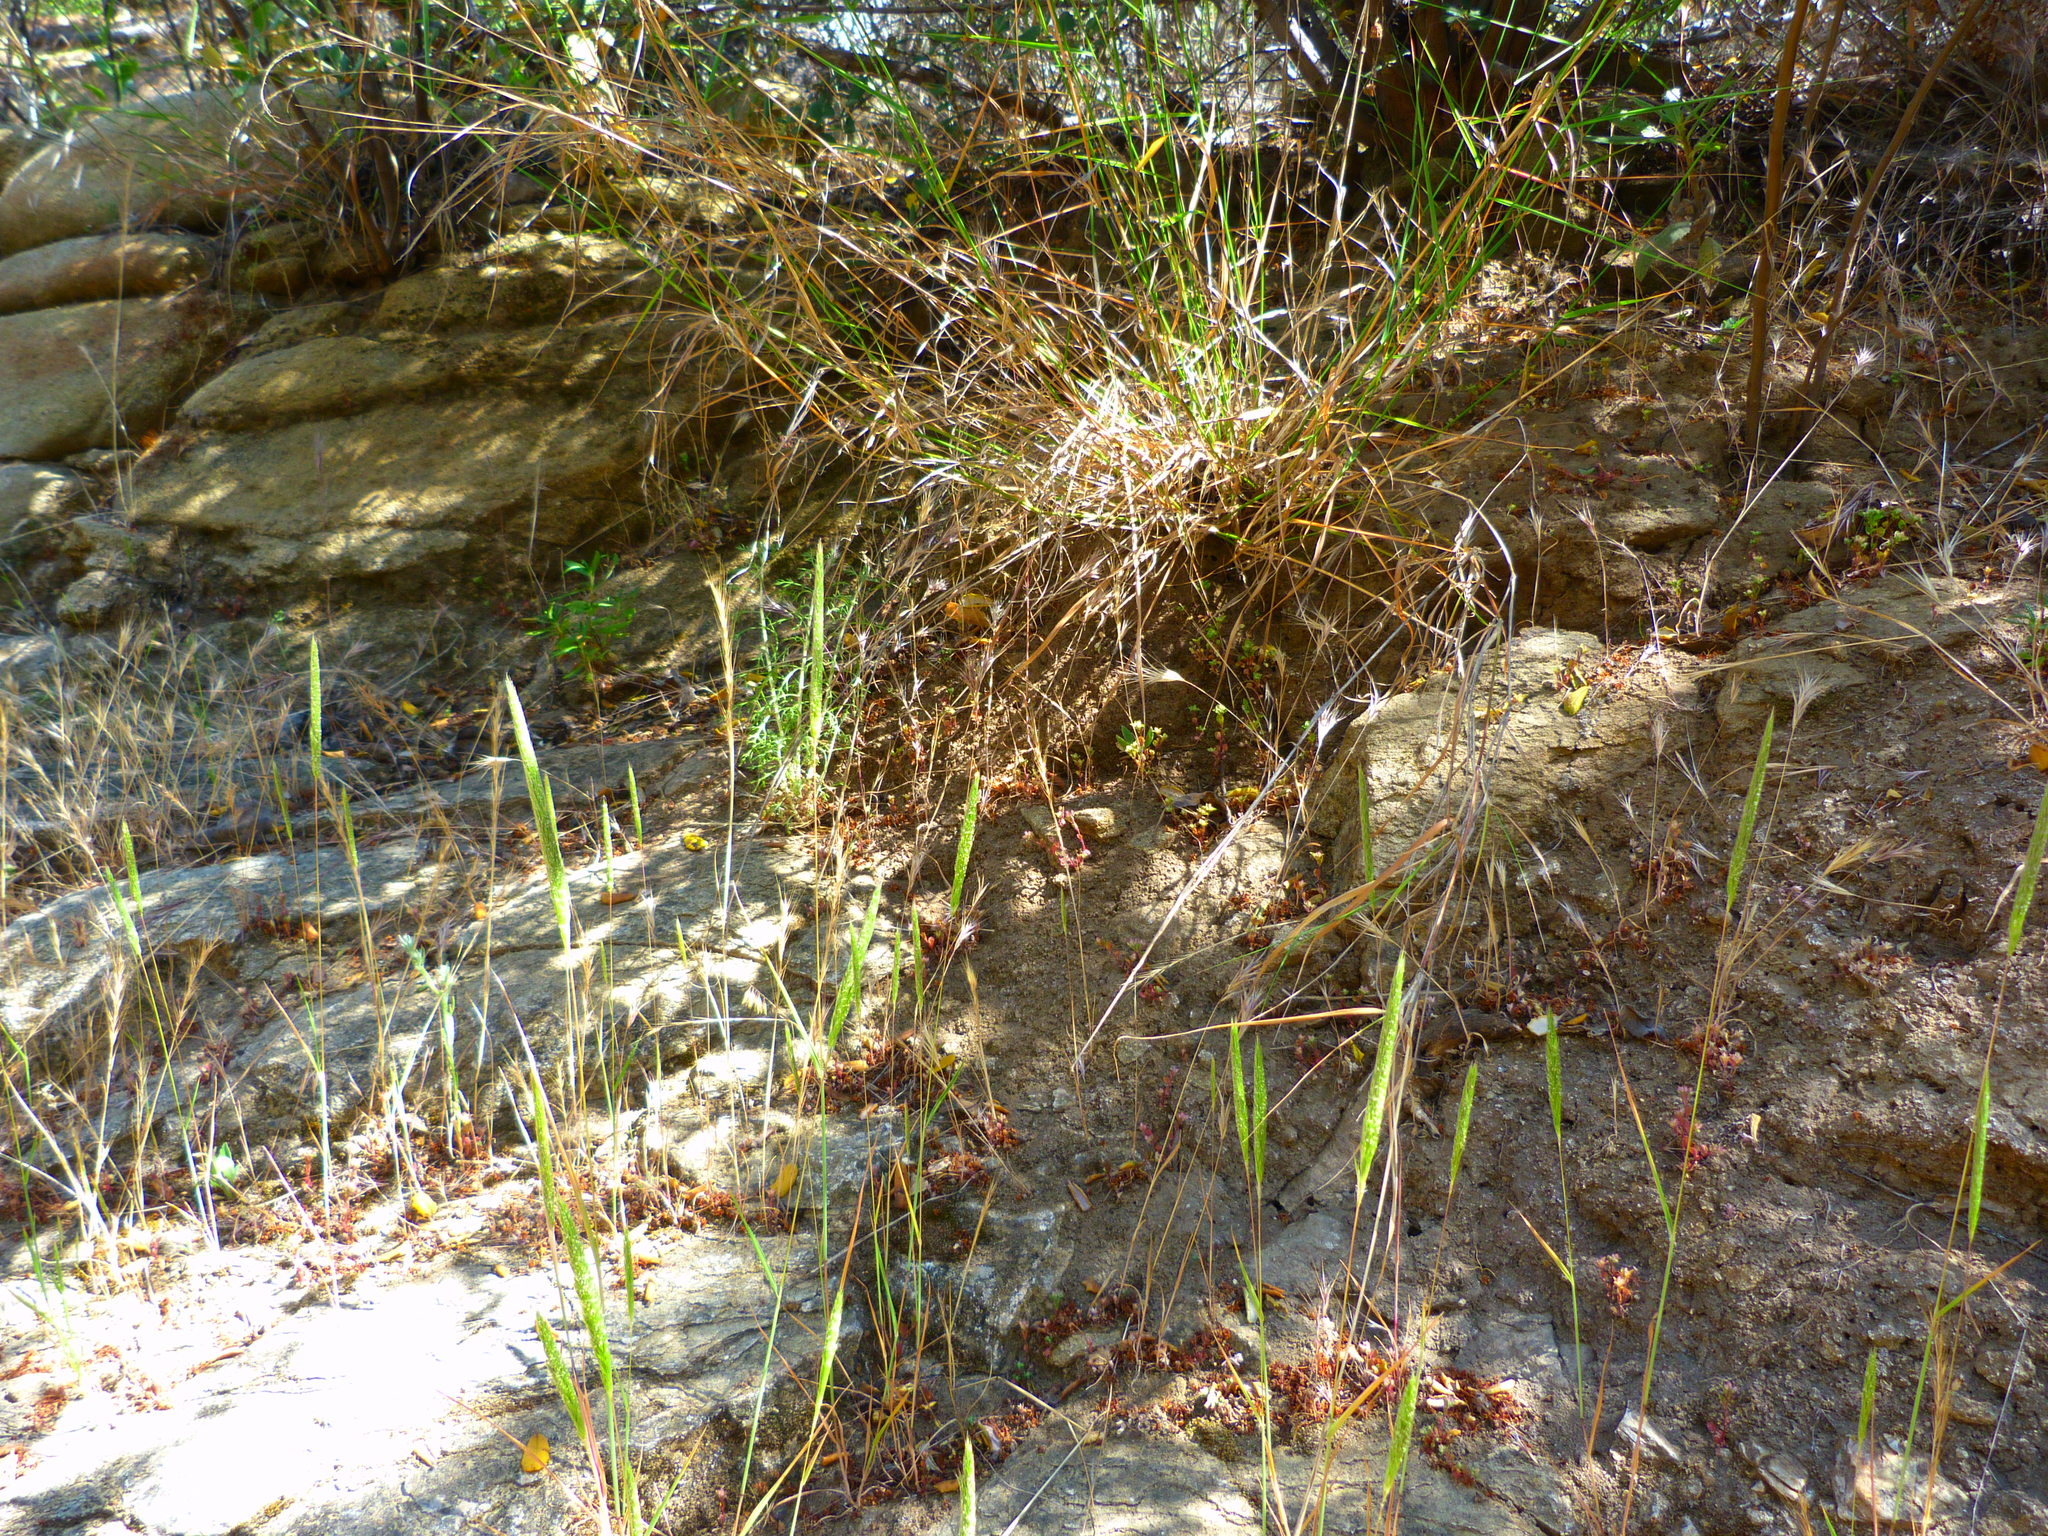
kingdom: Plantae
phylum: Tracheophyta
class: Liliopsida
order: Poales
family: Poaceae
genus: Gastridium
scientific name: Gastridium phleoides
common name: Nit grass
